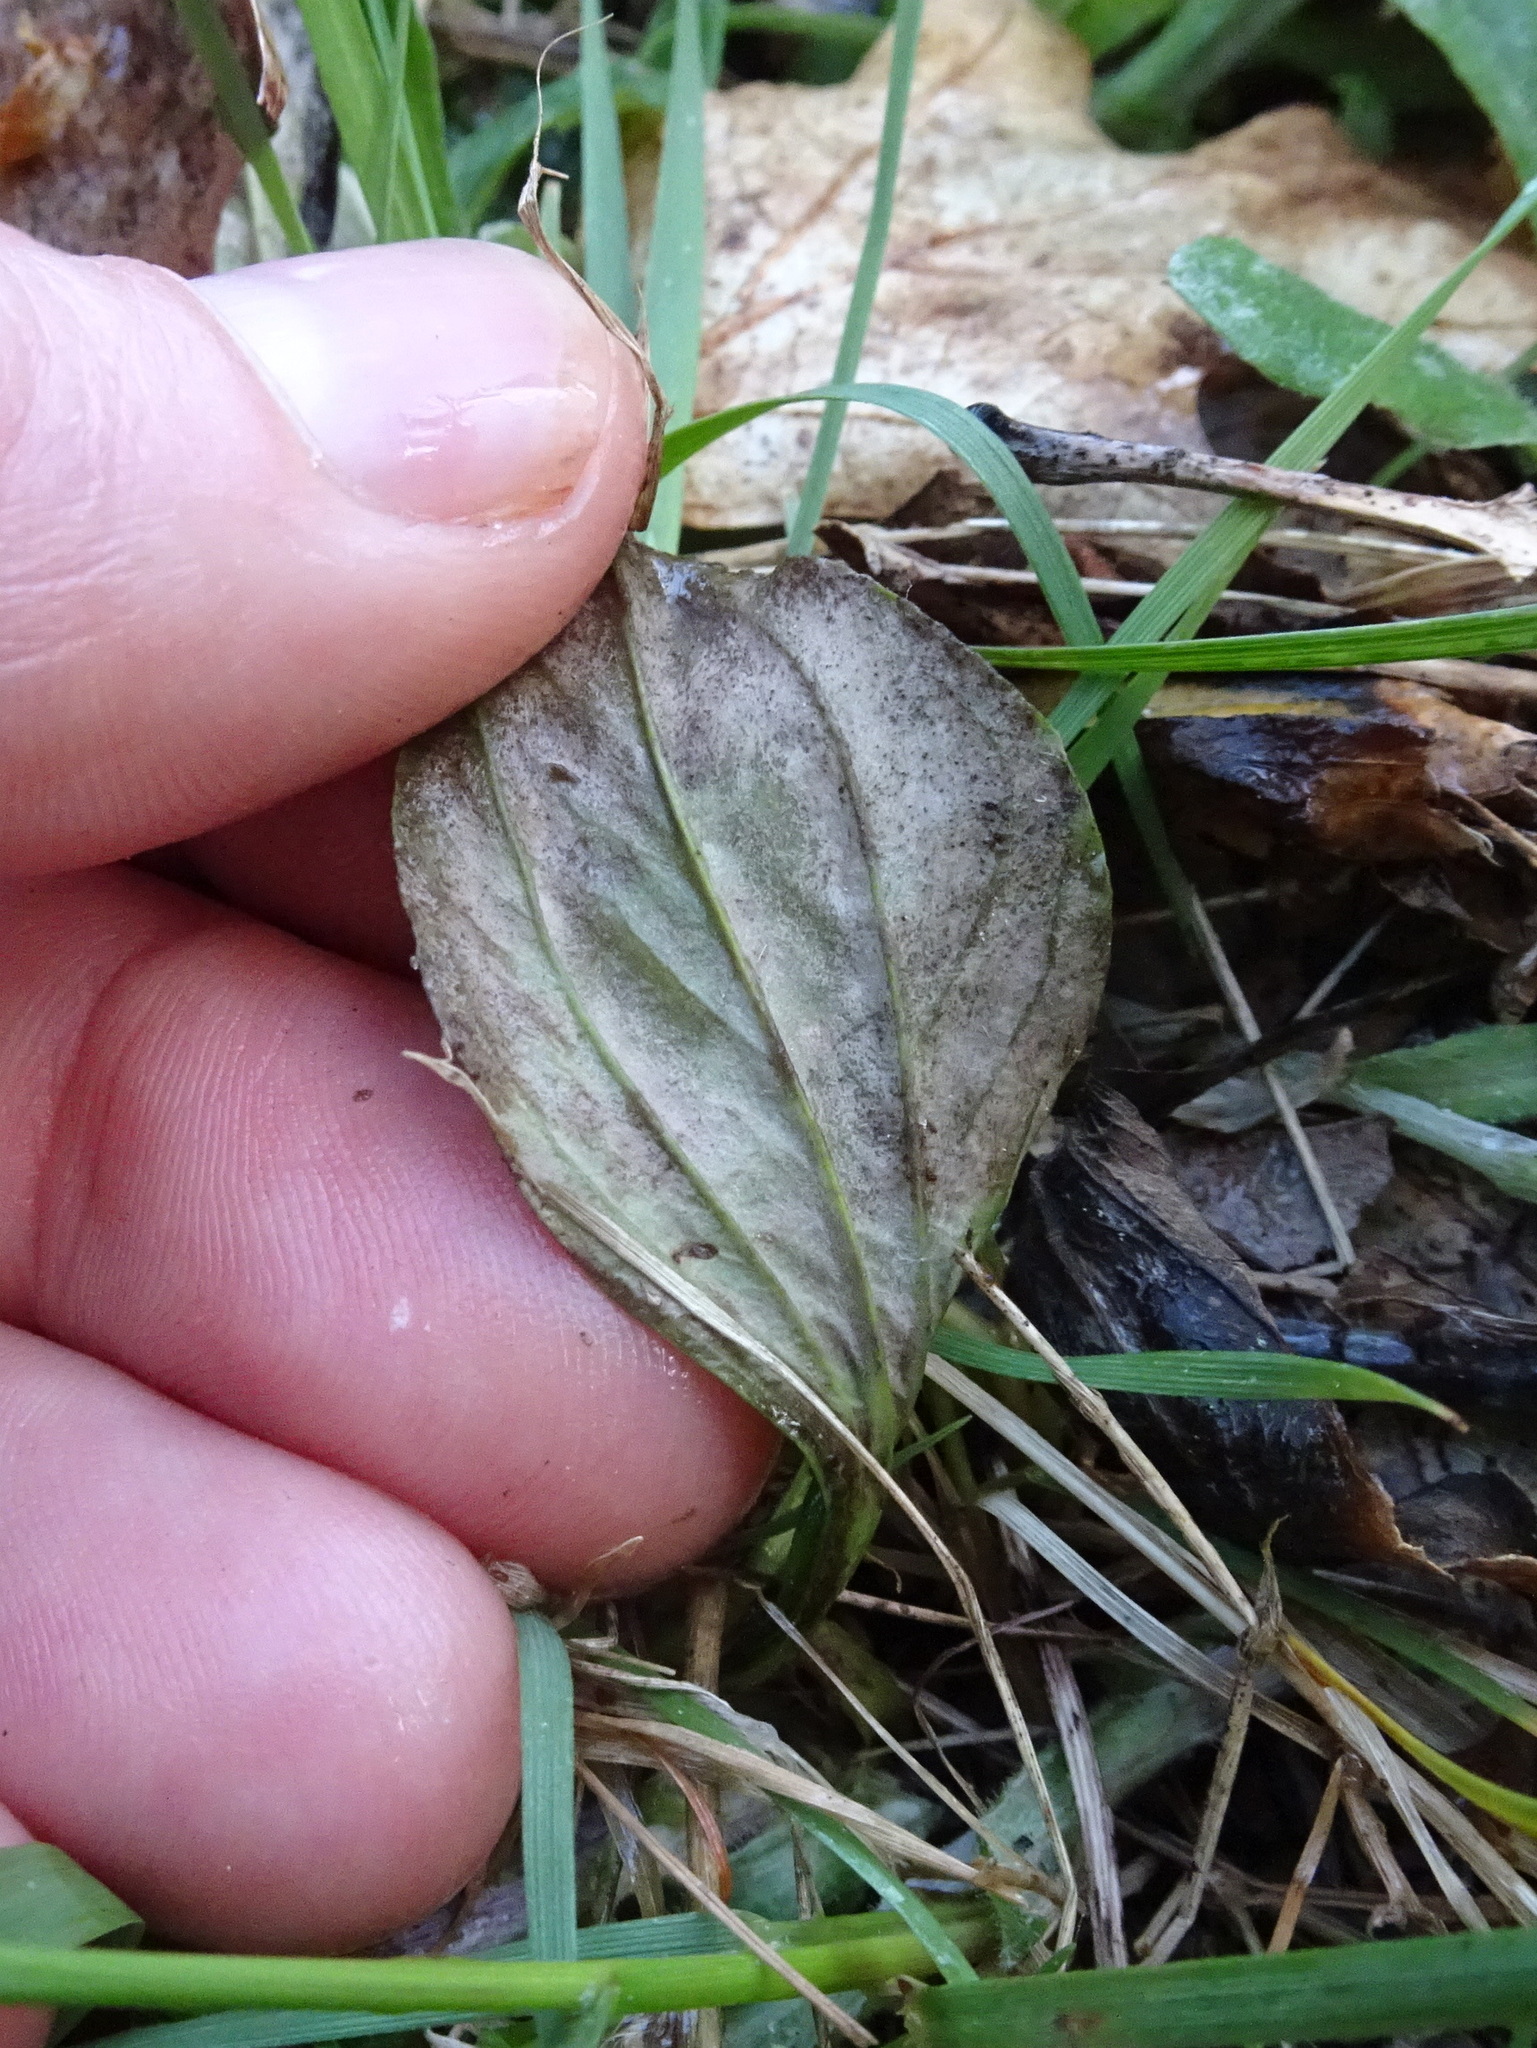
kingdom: Plantae
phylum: Tracheophyta
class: Magnoliopsida
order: Asterales
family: Asteraceae
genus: Antennaria
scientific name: Antennaria parlinii
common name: Parlin's pussytoes
